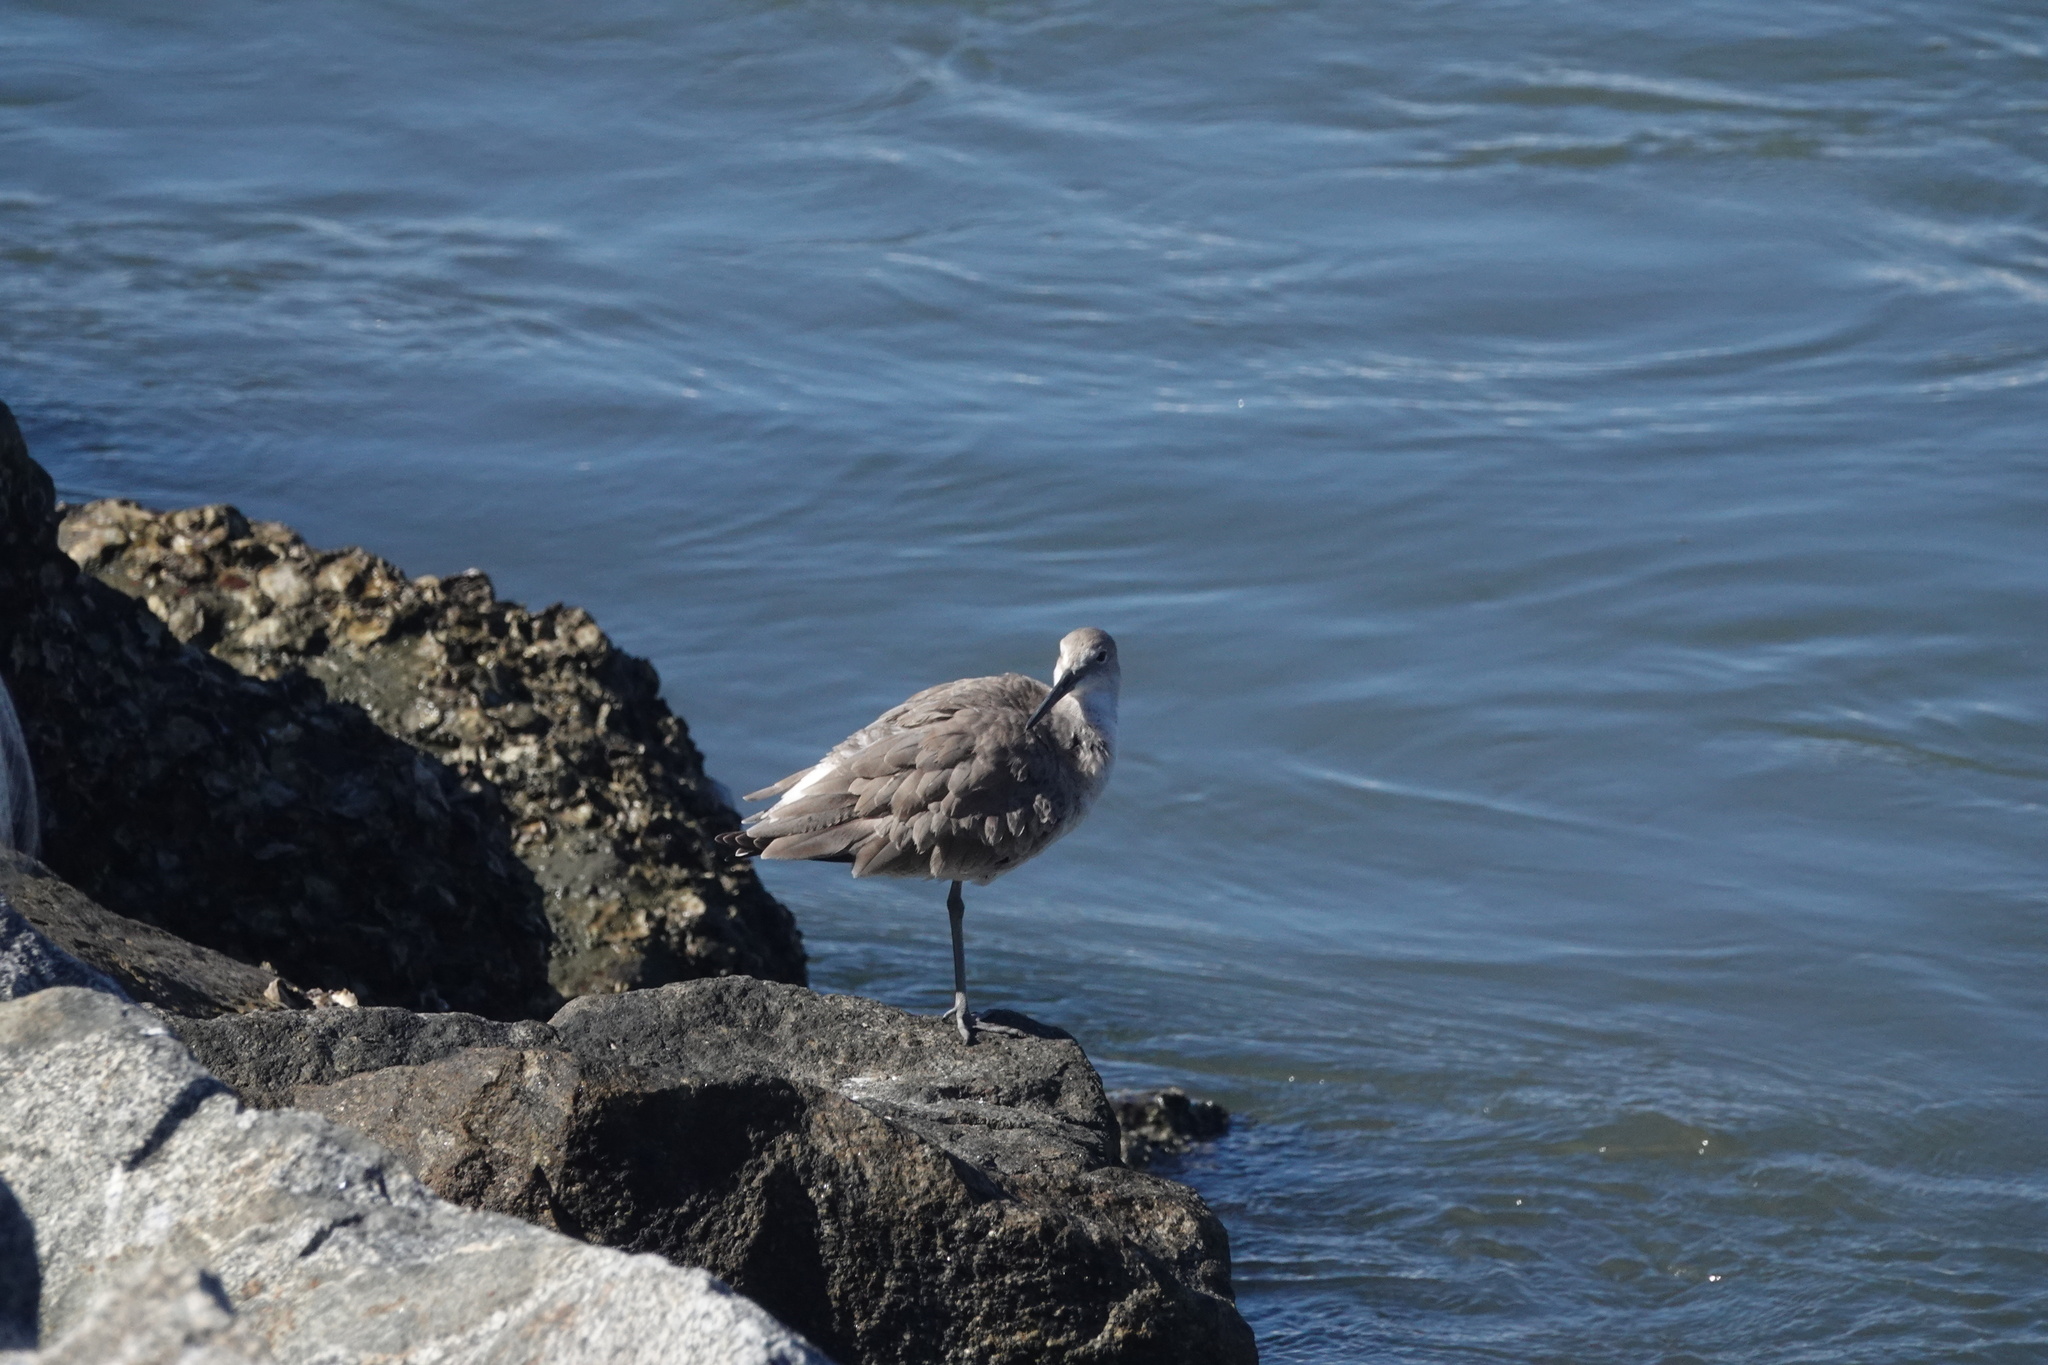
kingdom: Animalia
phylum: Chordata
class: Aves
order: Charadriiformes
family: Scolopacidae
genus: Tringa
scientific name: Tringa semipalmata
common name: Willet
